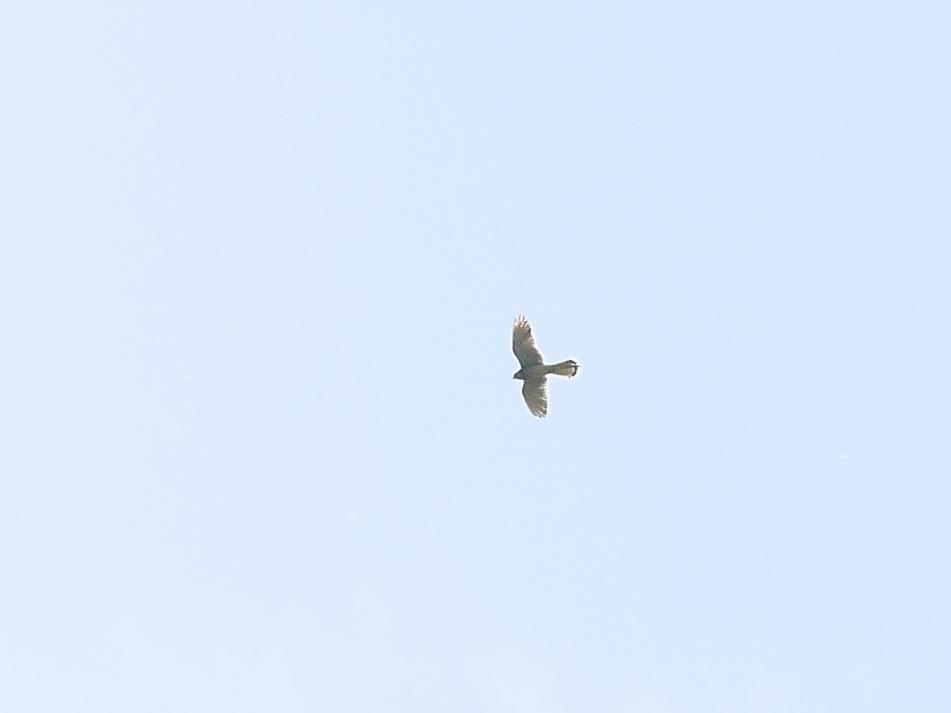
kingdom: Animalia
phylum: Chordata
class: Aves
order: Falconiformes
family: Falconidae
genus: Falco
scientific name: Falco tinnunculus
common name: Common kestrel
